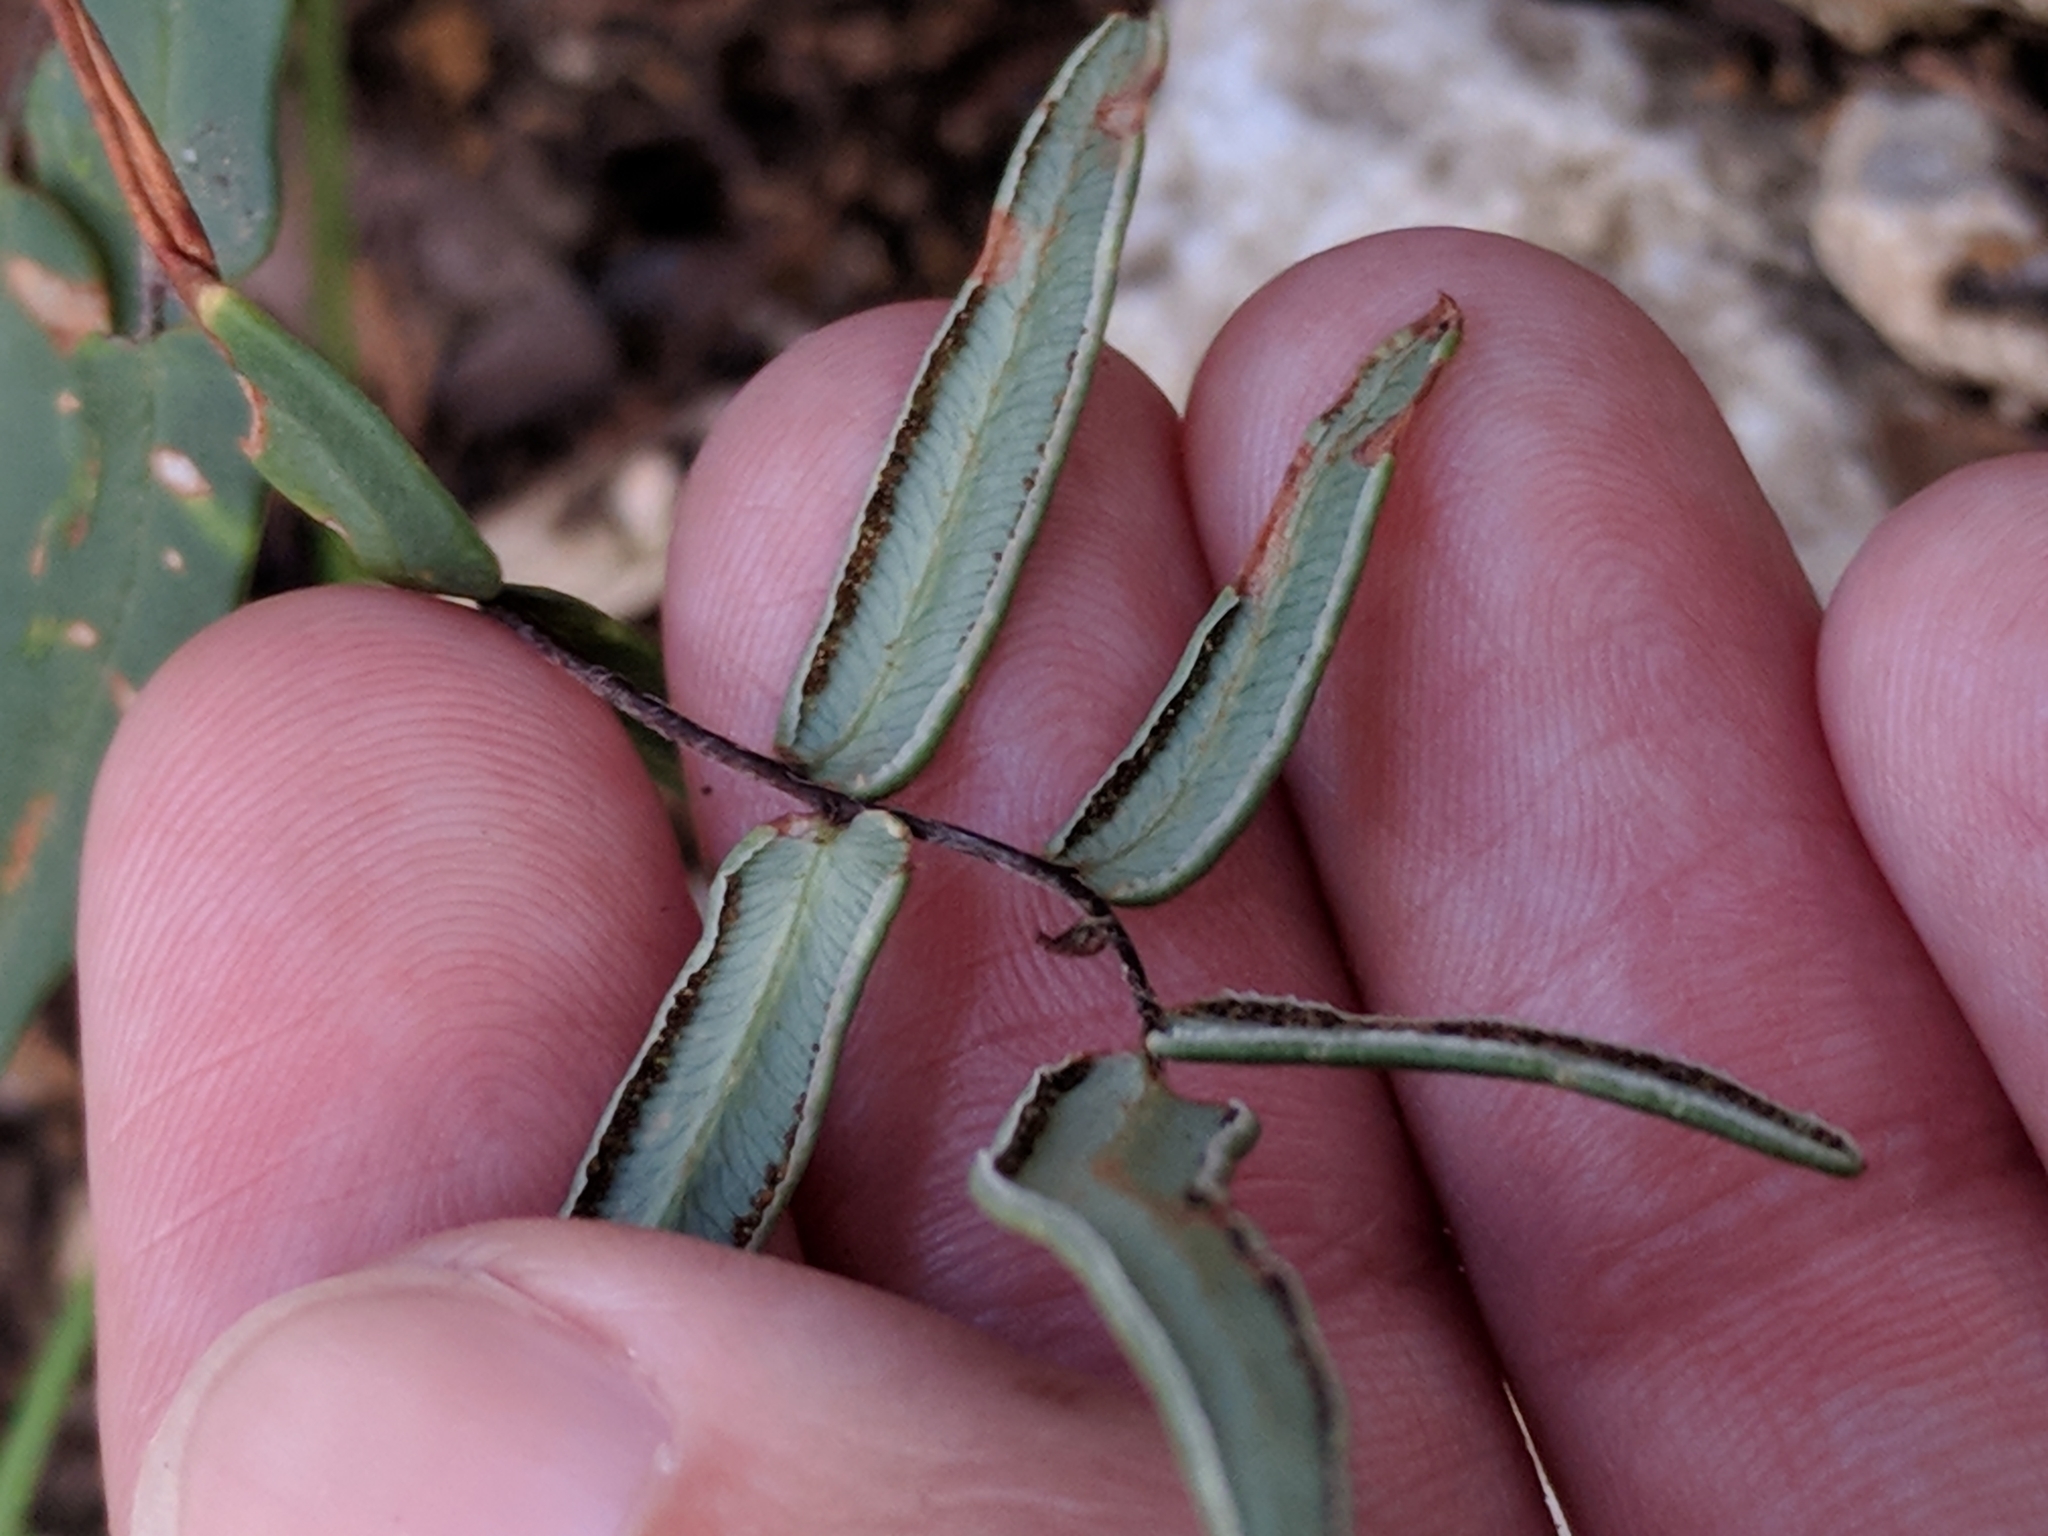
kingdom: Plantae
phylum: Tracheophyta
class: Polypodiopsida
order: Polypodiales
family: Pteridaceae
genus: Pellaea
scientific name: Pellaea atropurpurea
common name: Hairy cliffbrake
